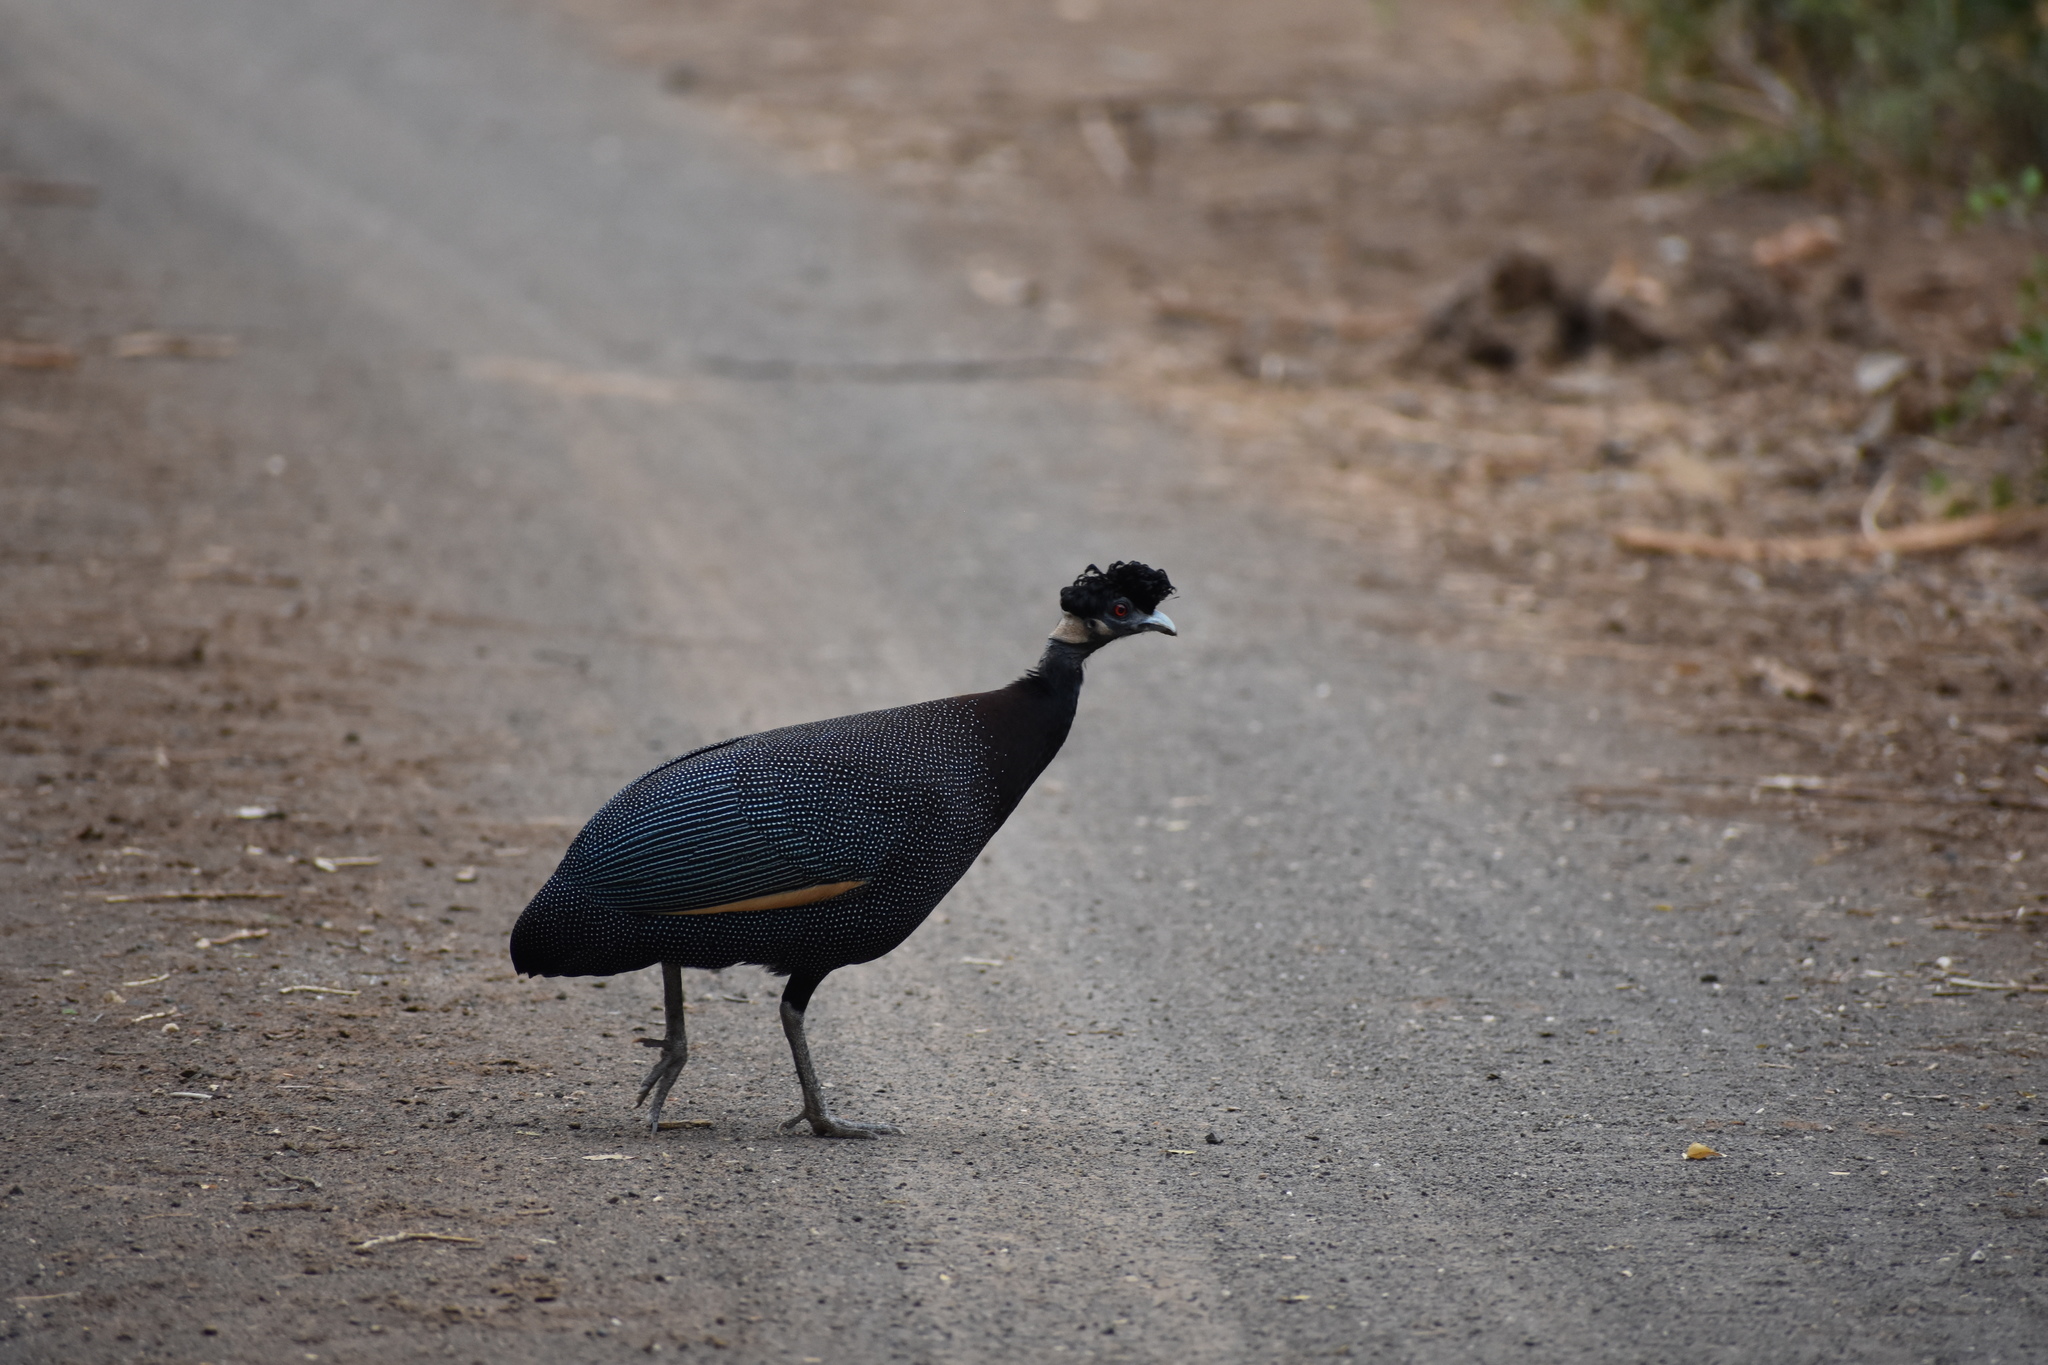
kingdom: Animalia
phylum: Chordata
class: Aves
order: Galliformes
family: Numididae
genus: Guttera
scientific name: Guttera pucherani
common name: Crested guineafowl
